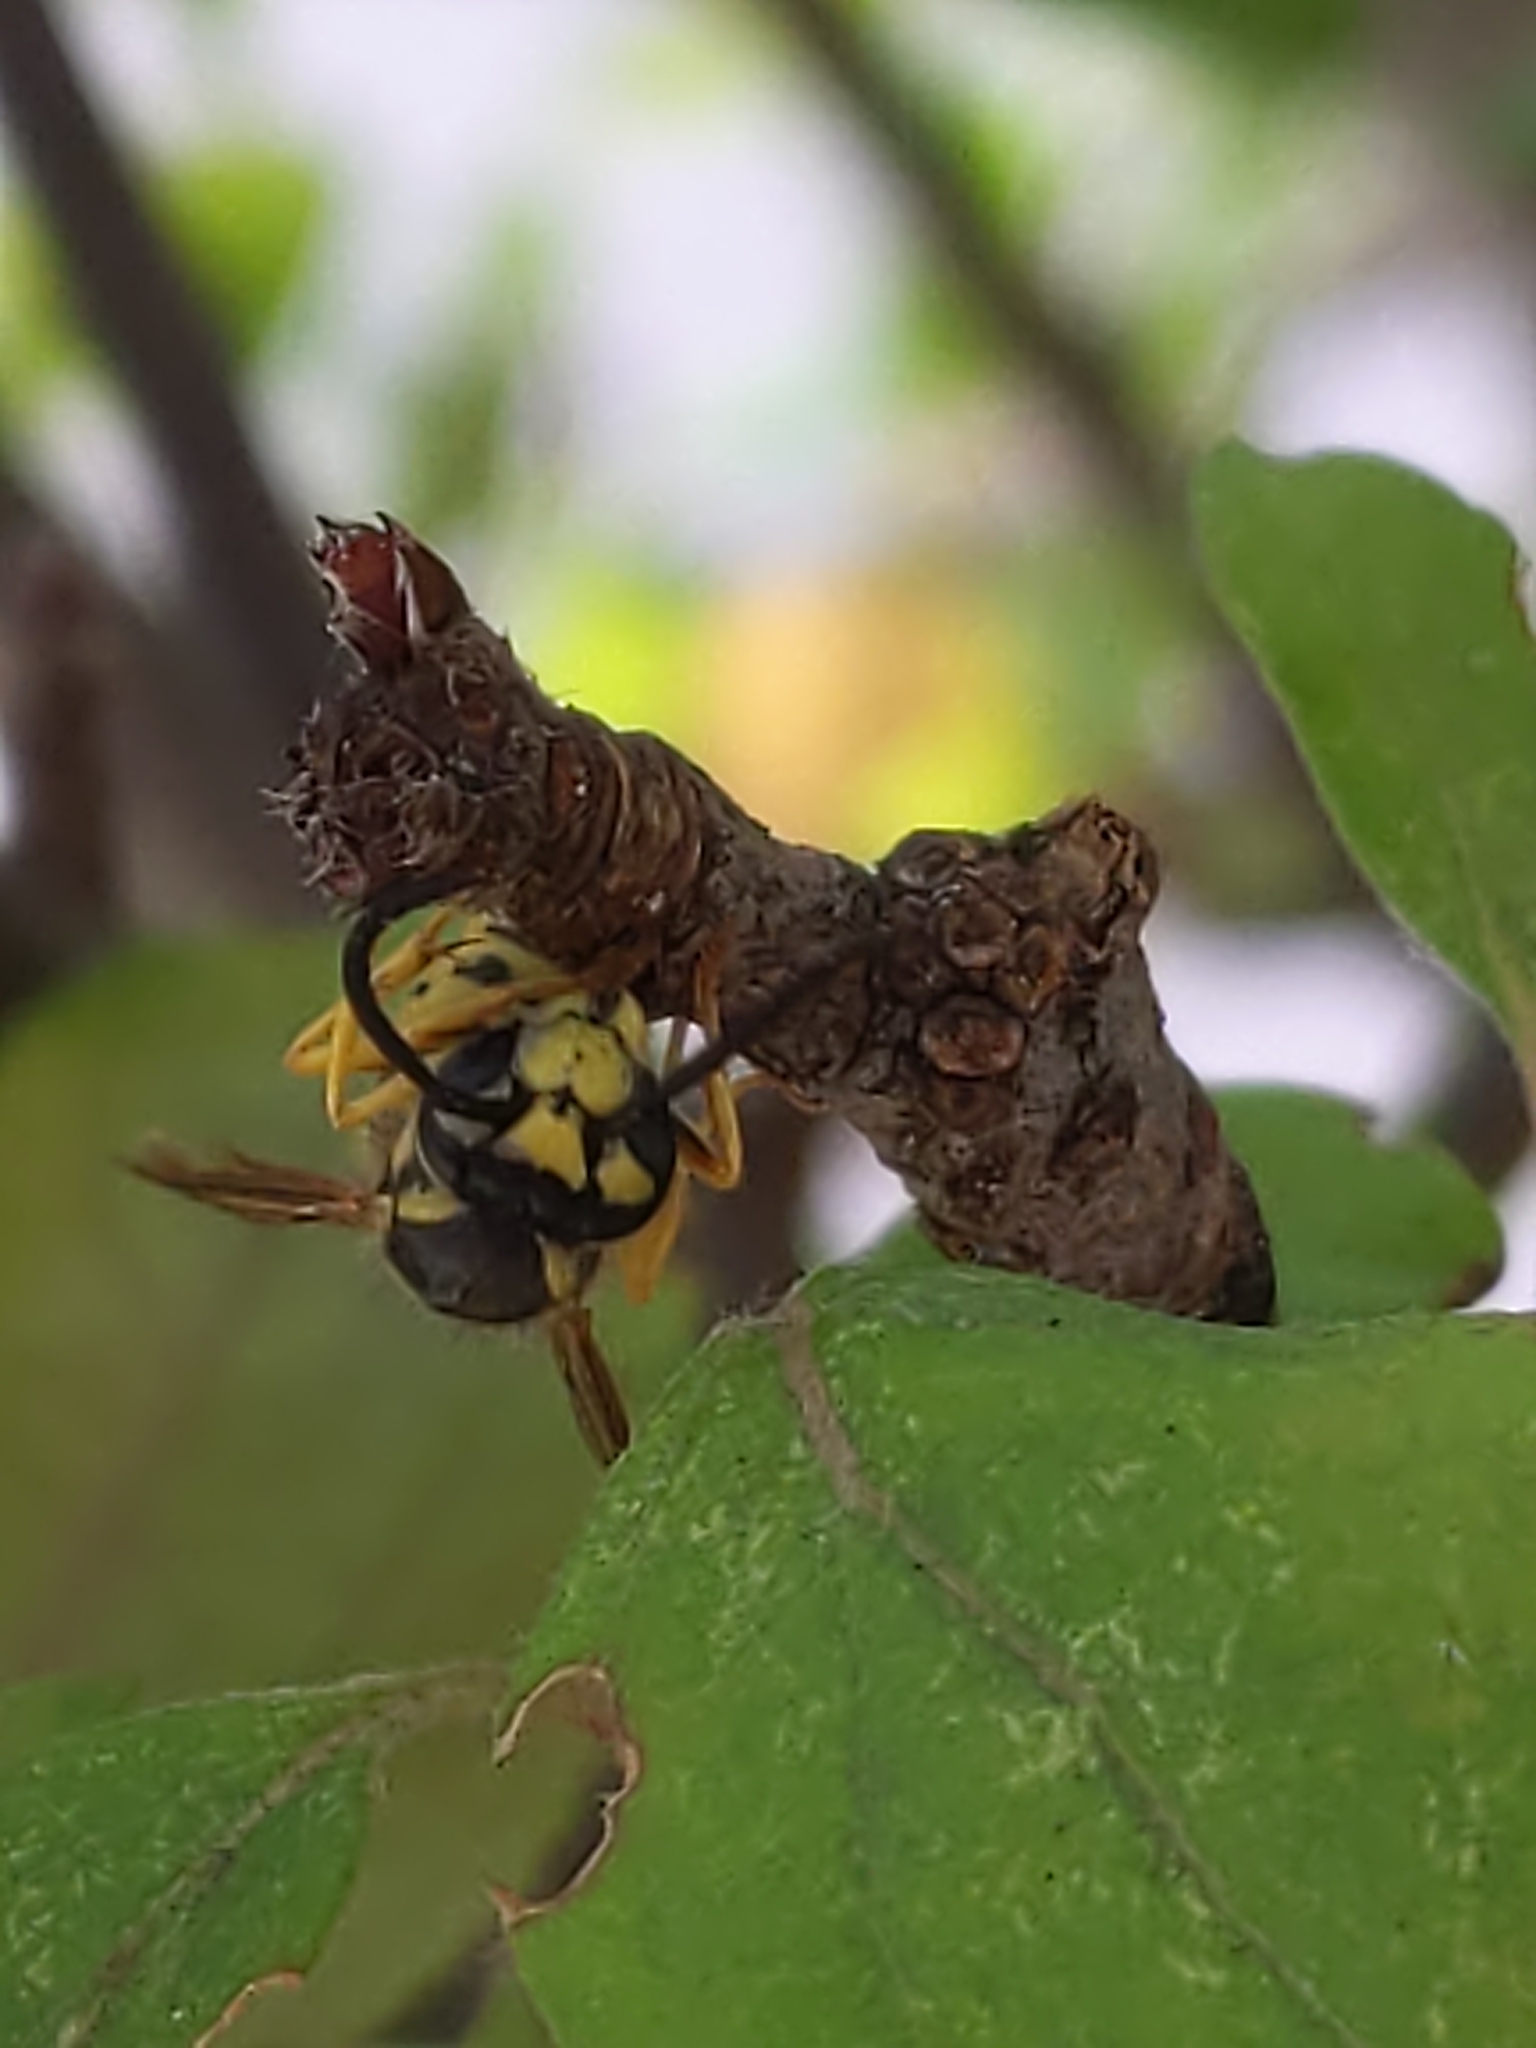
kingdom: Animalia
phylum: Arthropoda
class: Insecta
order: Hymenoptera
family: Vespidae
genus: Vespula
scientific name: Vespula maculifrons
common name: Eastern yellowjacket
